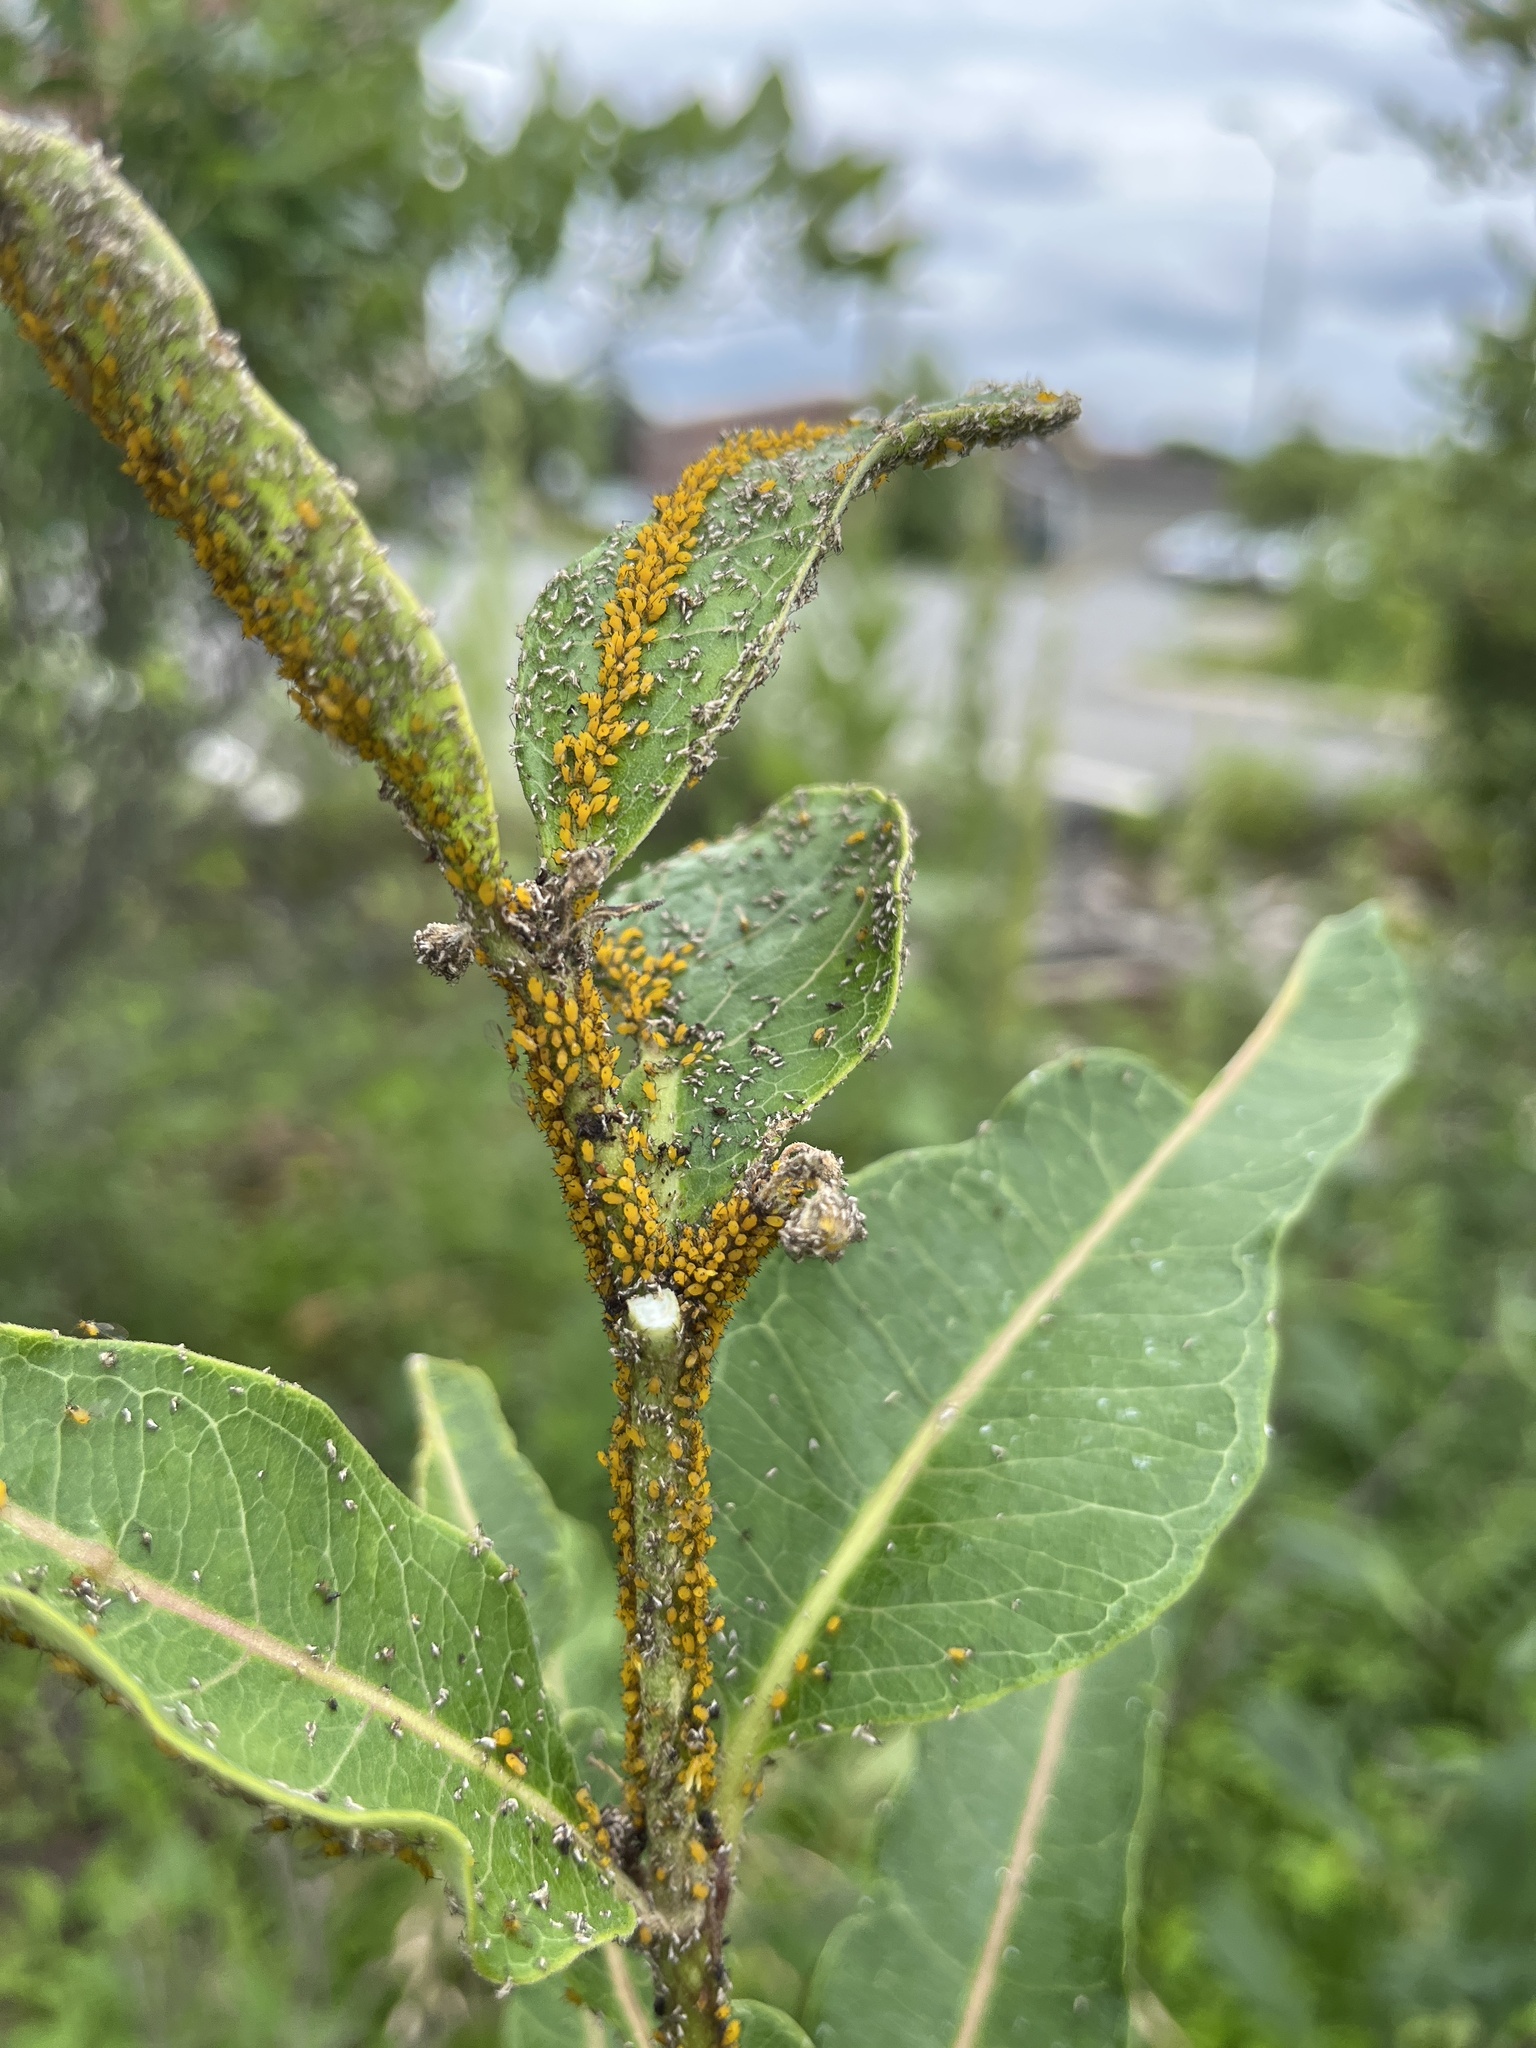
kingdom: Animalia
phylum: Arthropoda
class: Insecta
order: Hemiptera
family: Aphididae
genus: Aphis
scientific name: Aphis nerii
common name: Oleander aphid
